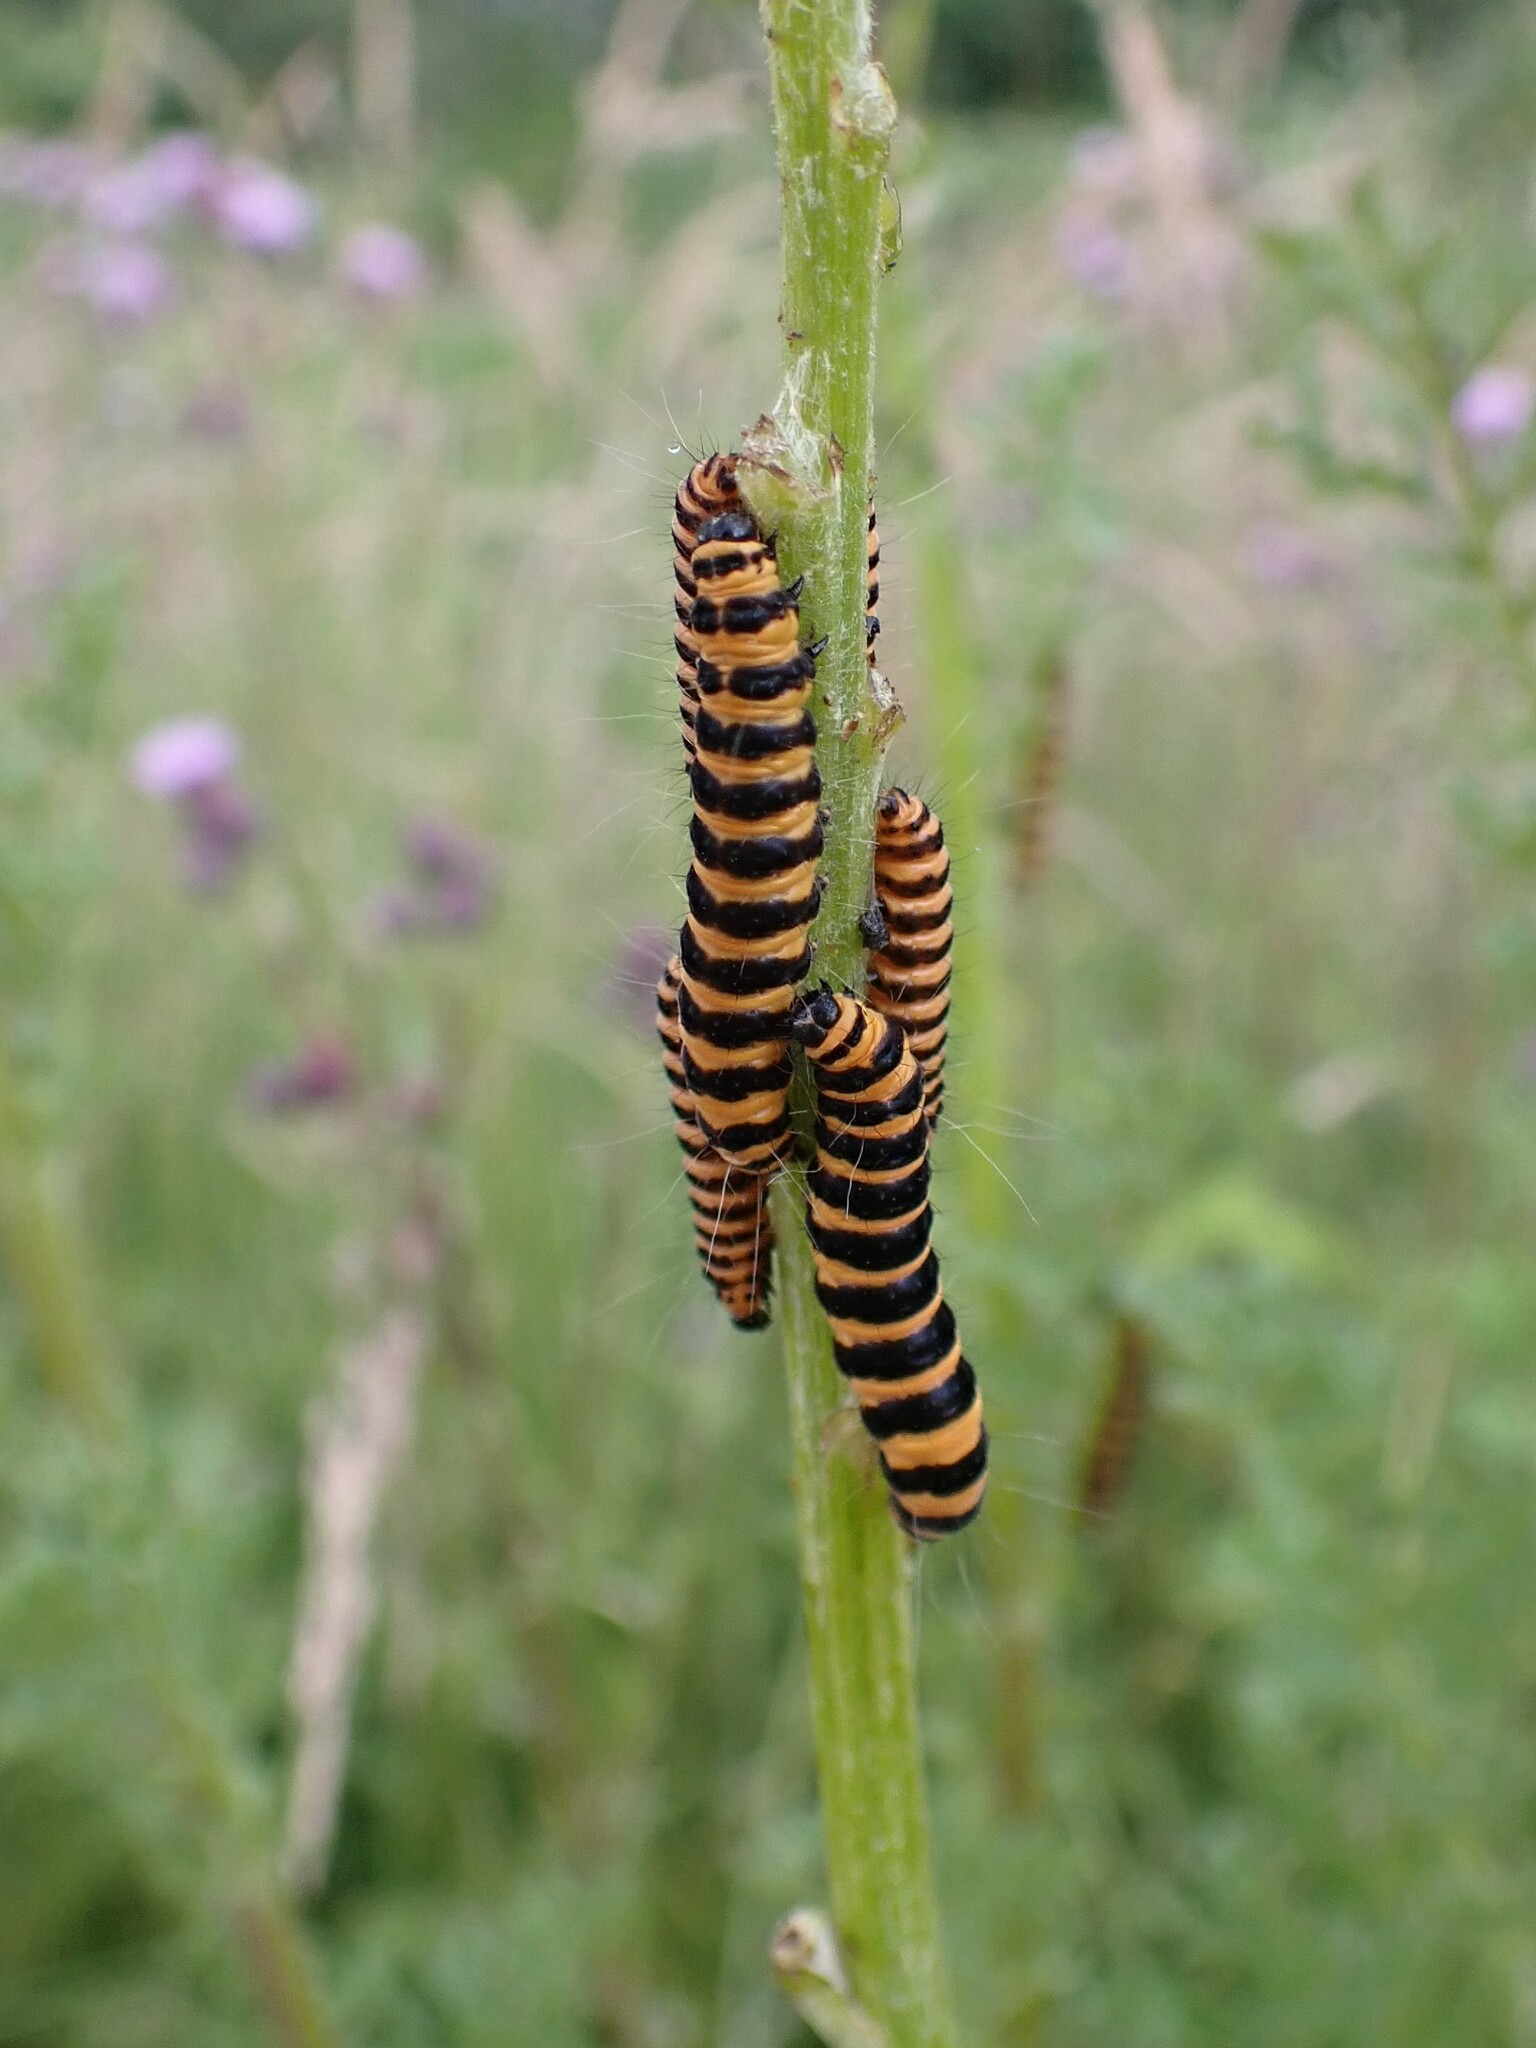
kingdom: Animalia
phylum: Arthropoda
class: Insecta
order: Lepidoptera
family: Erebidae
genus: Tyria
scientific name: Tyria jacobaeae
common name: Cinnabar
